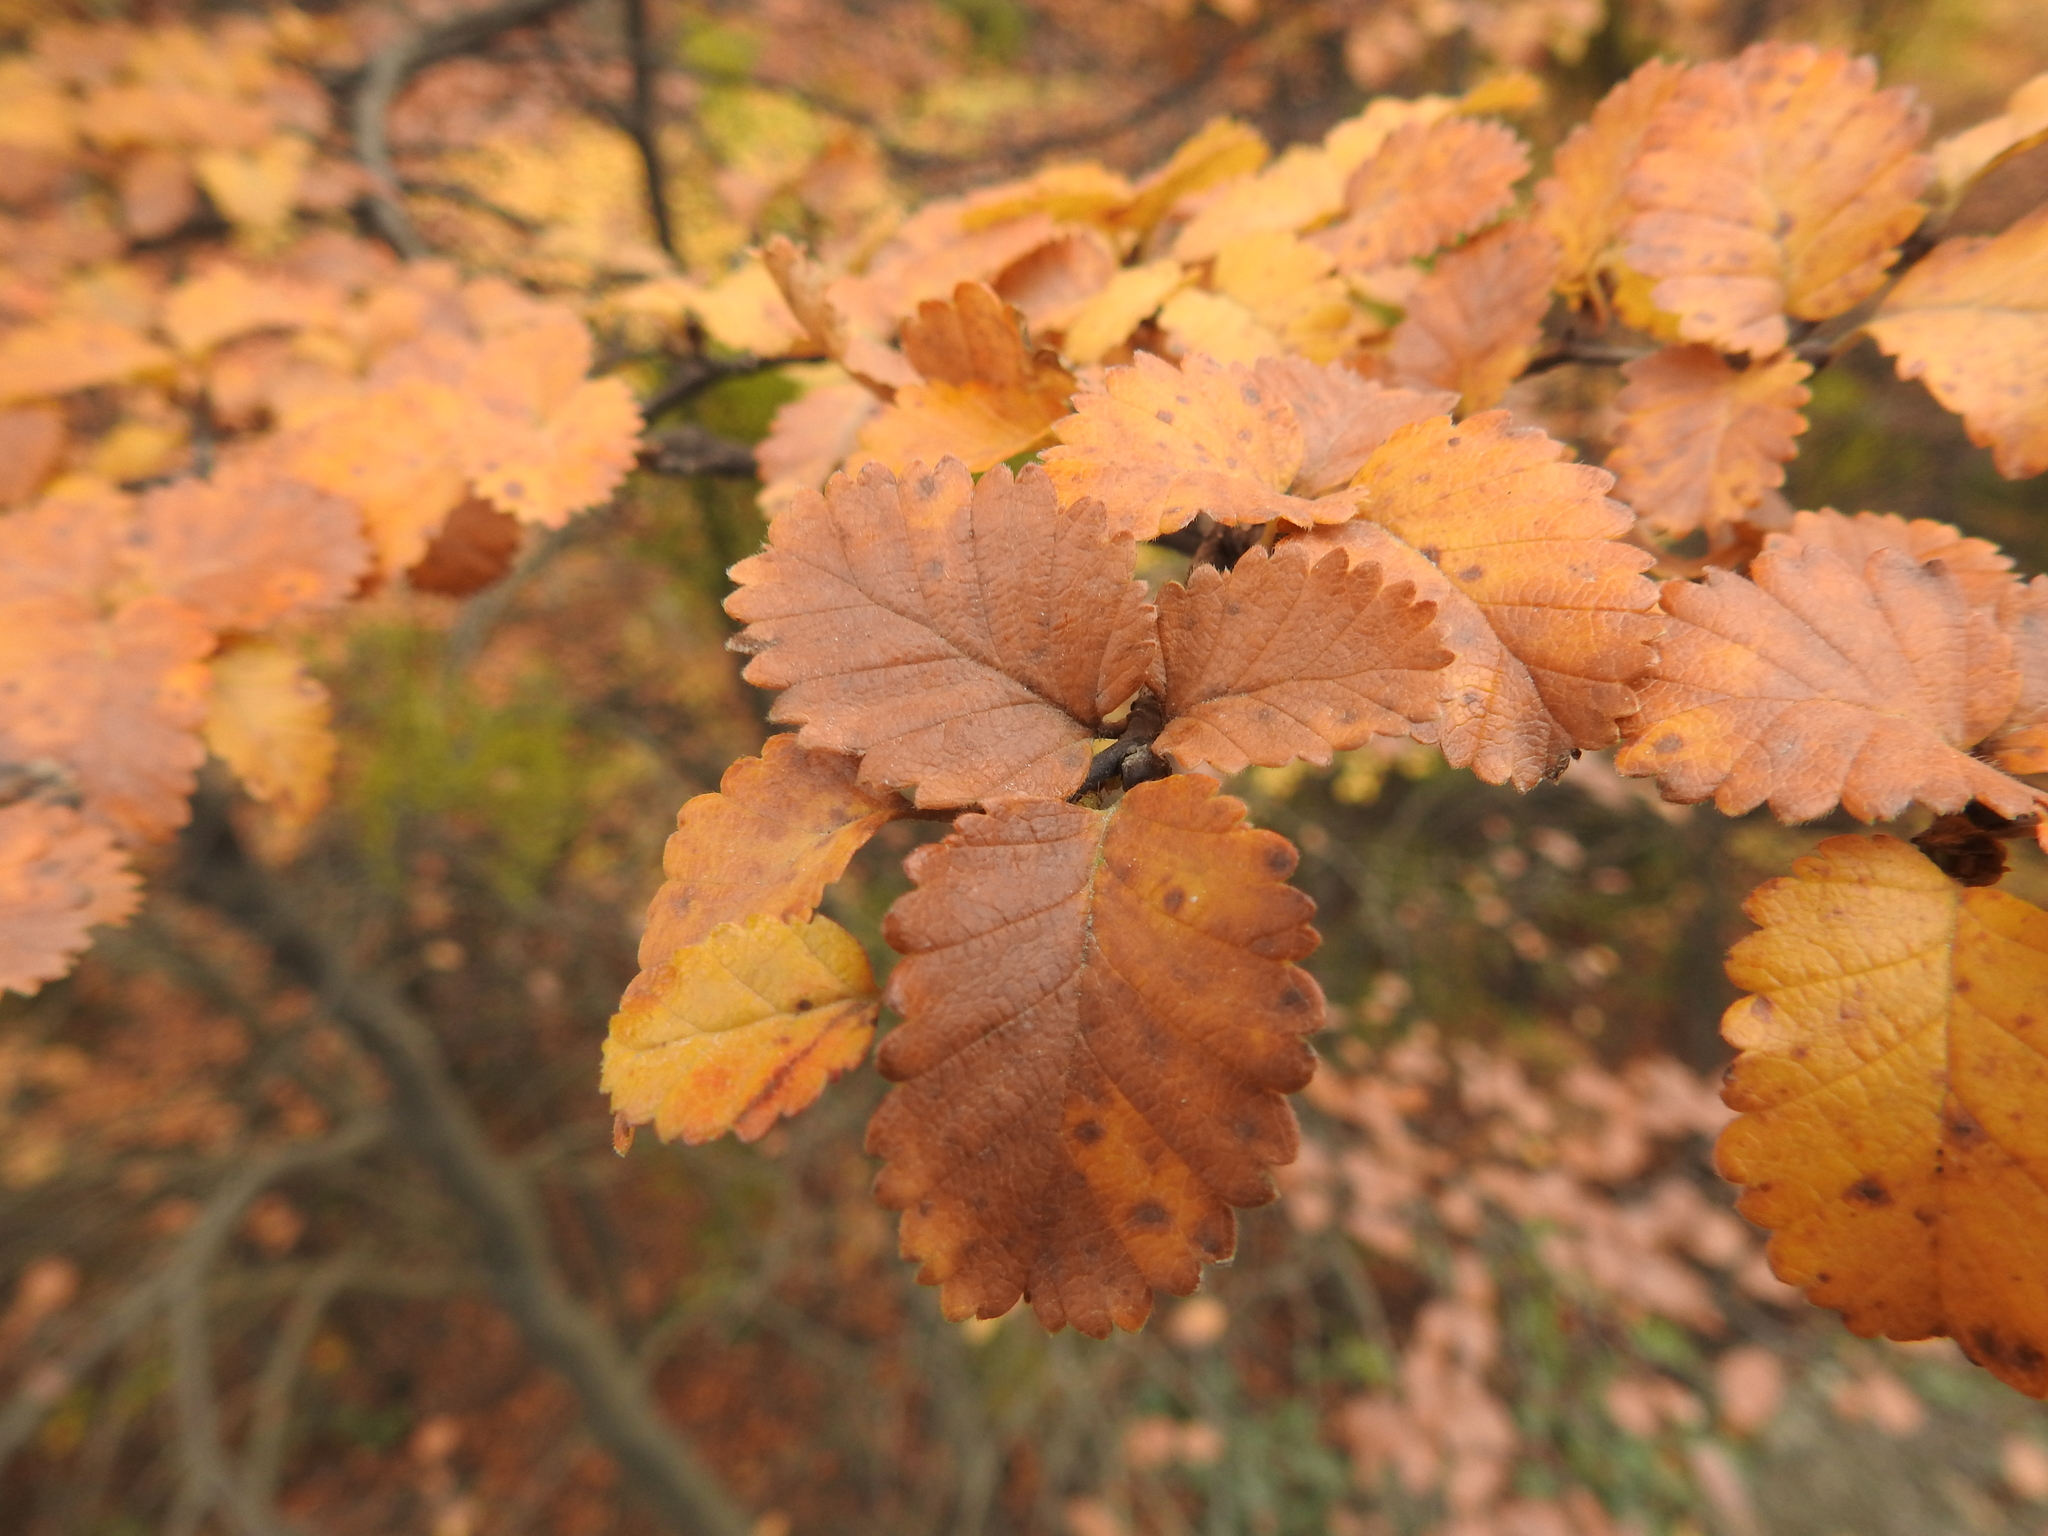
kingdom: Plantae
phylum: Tracheophyta
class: Magnoliopsida
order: Fagales
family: Nothofagaceae
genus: Nothofagus
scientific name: Nothofagus pumilio
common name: Lenga beech
